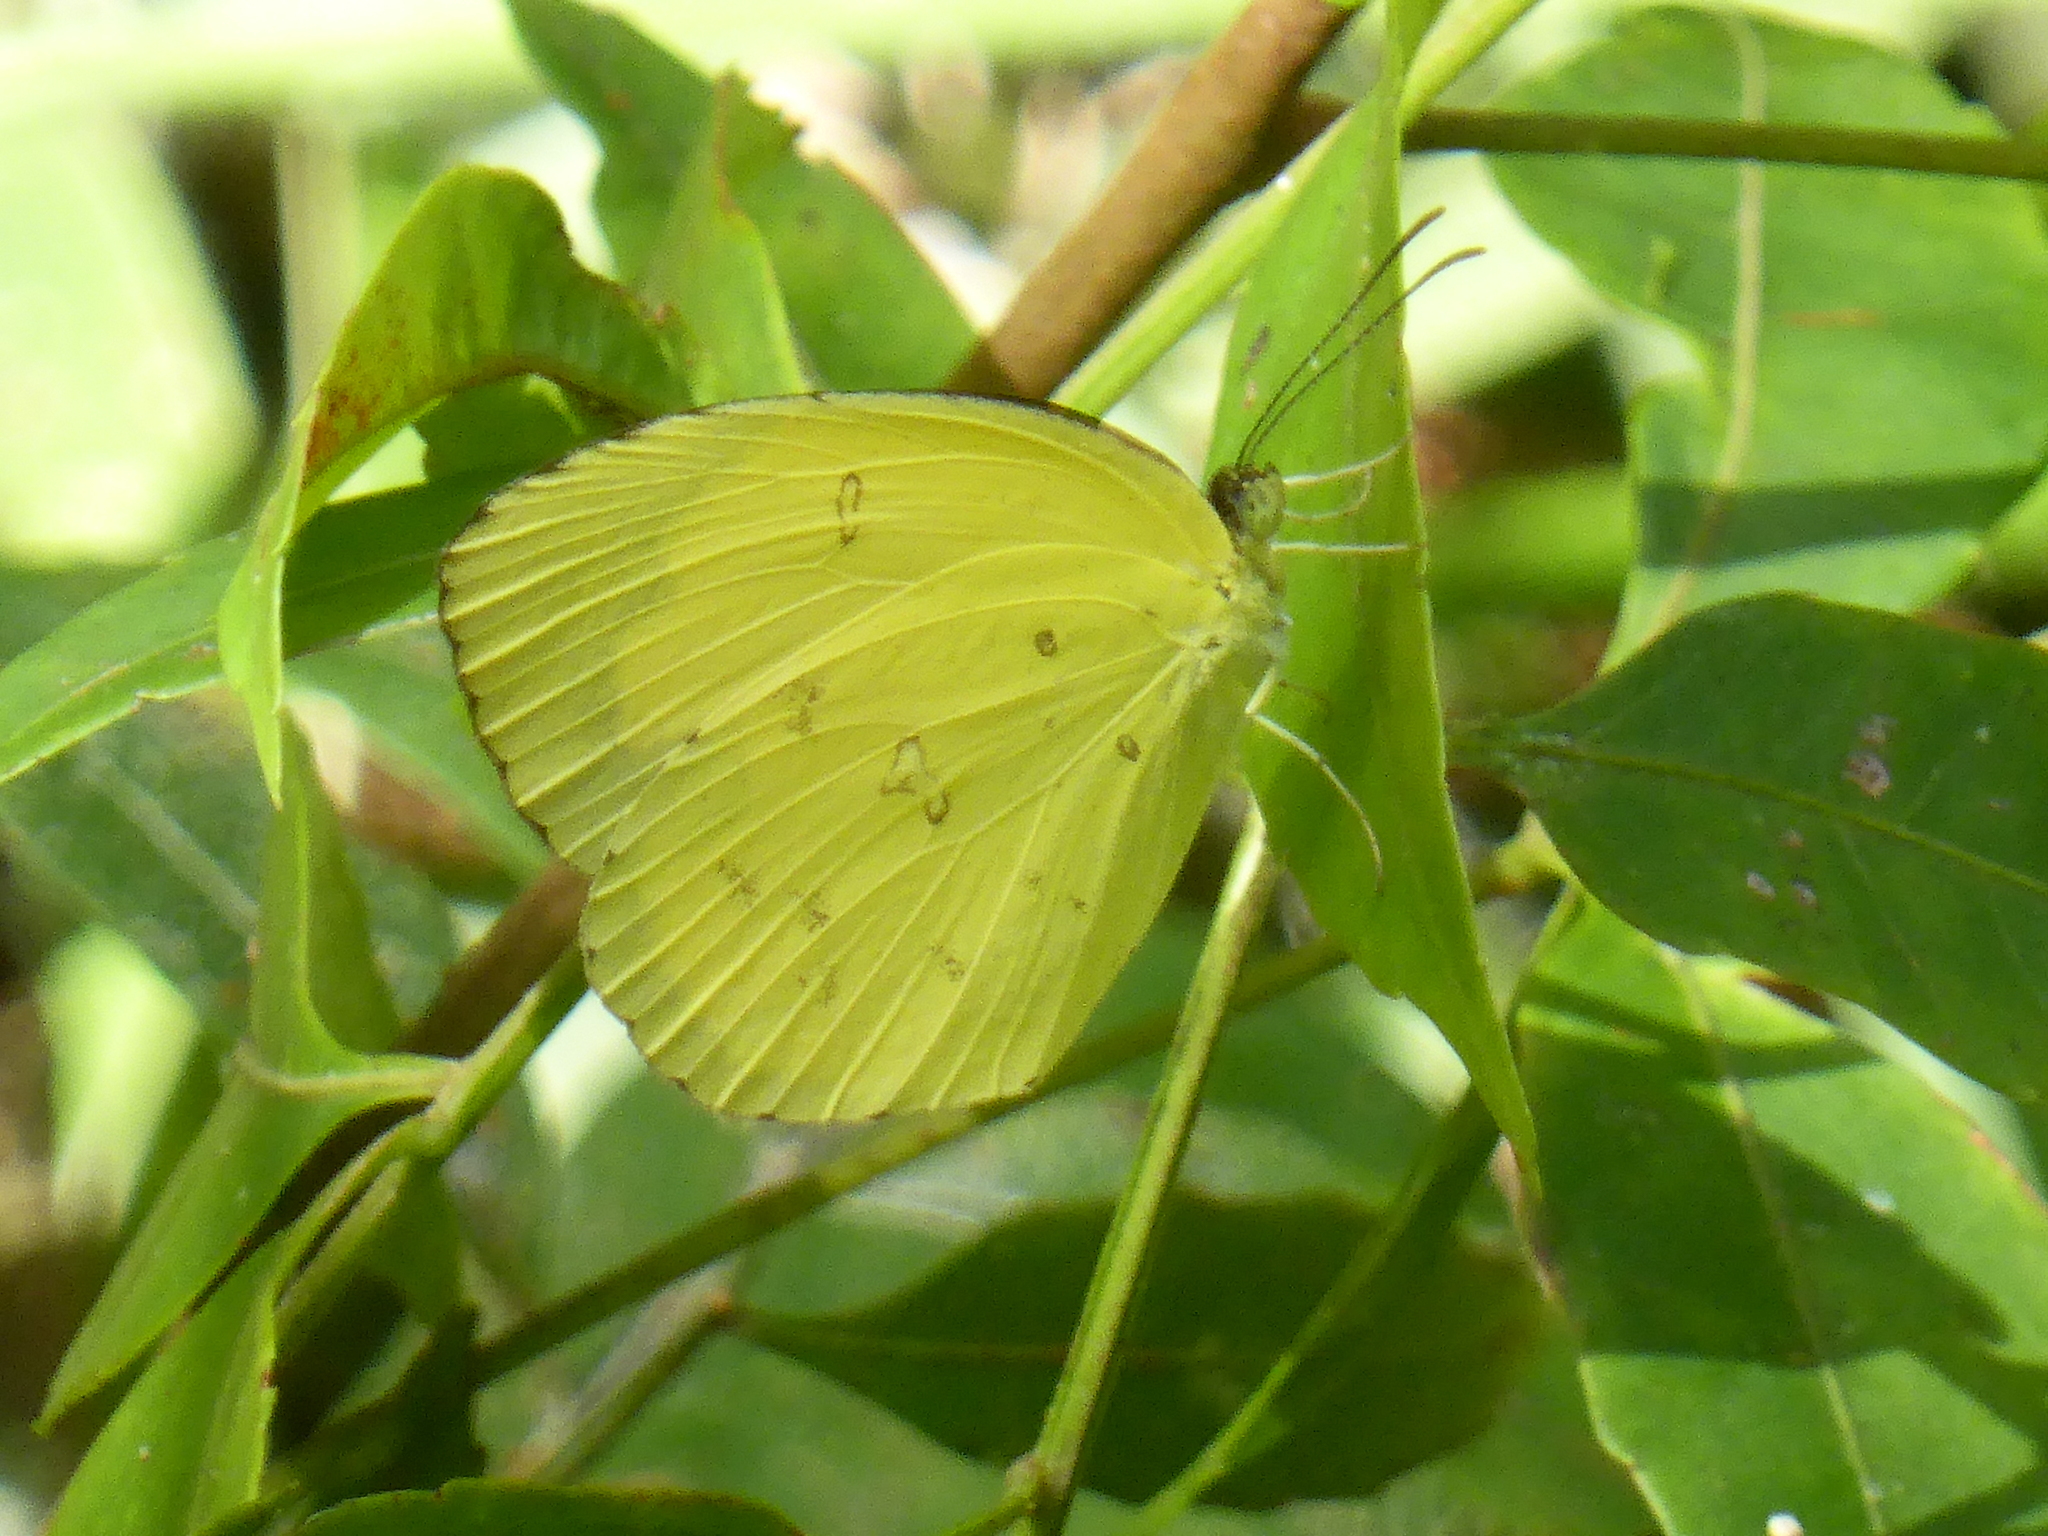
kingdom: Animalia
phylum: Arthropoda
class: Insecta
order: Lepidoptera
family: Pieridae
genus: Eurema
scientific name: Eurema hecabe
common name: Pale grass yellow
